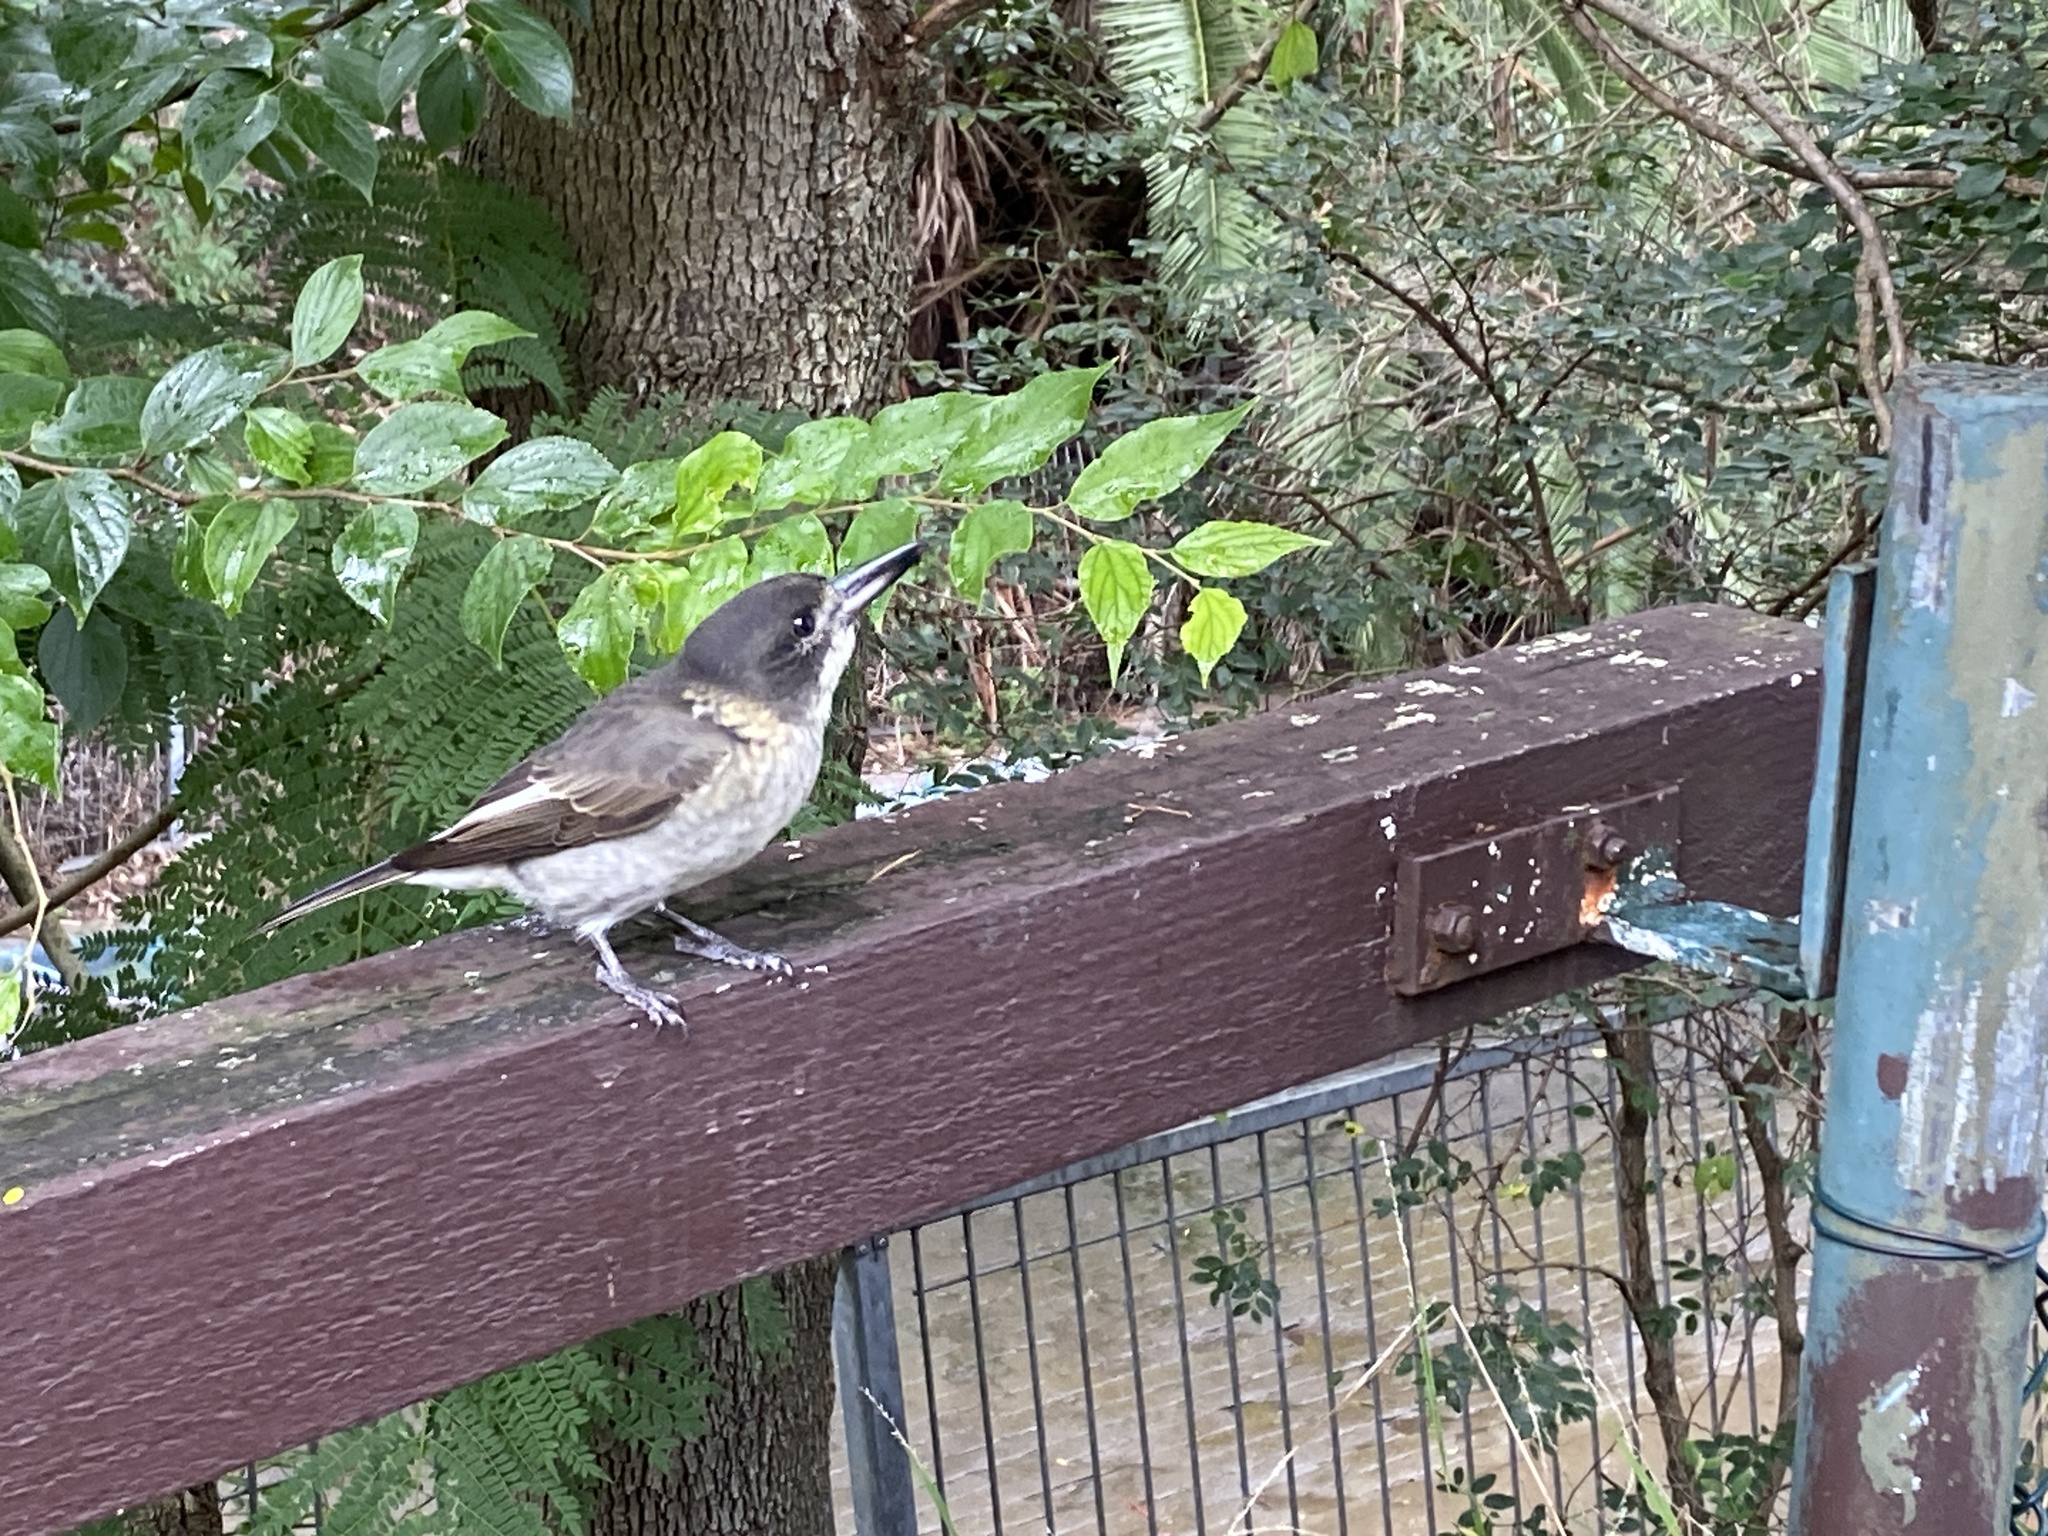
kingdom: Animalia
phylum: Chordata
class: Aves
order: Passeriformes
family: Cracticidae
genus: Cracticus
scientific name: Cracticus torquatus
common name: Grey butcherbird
